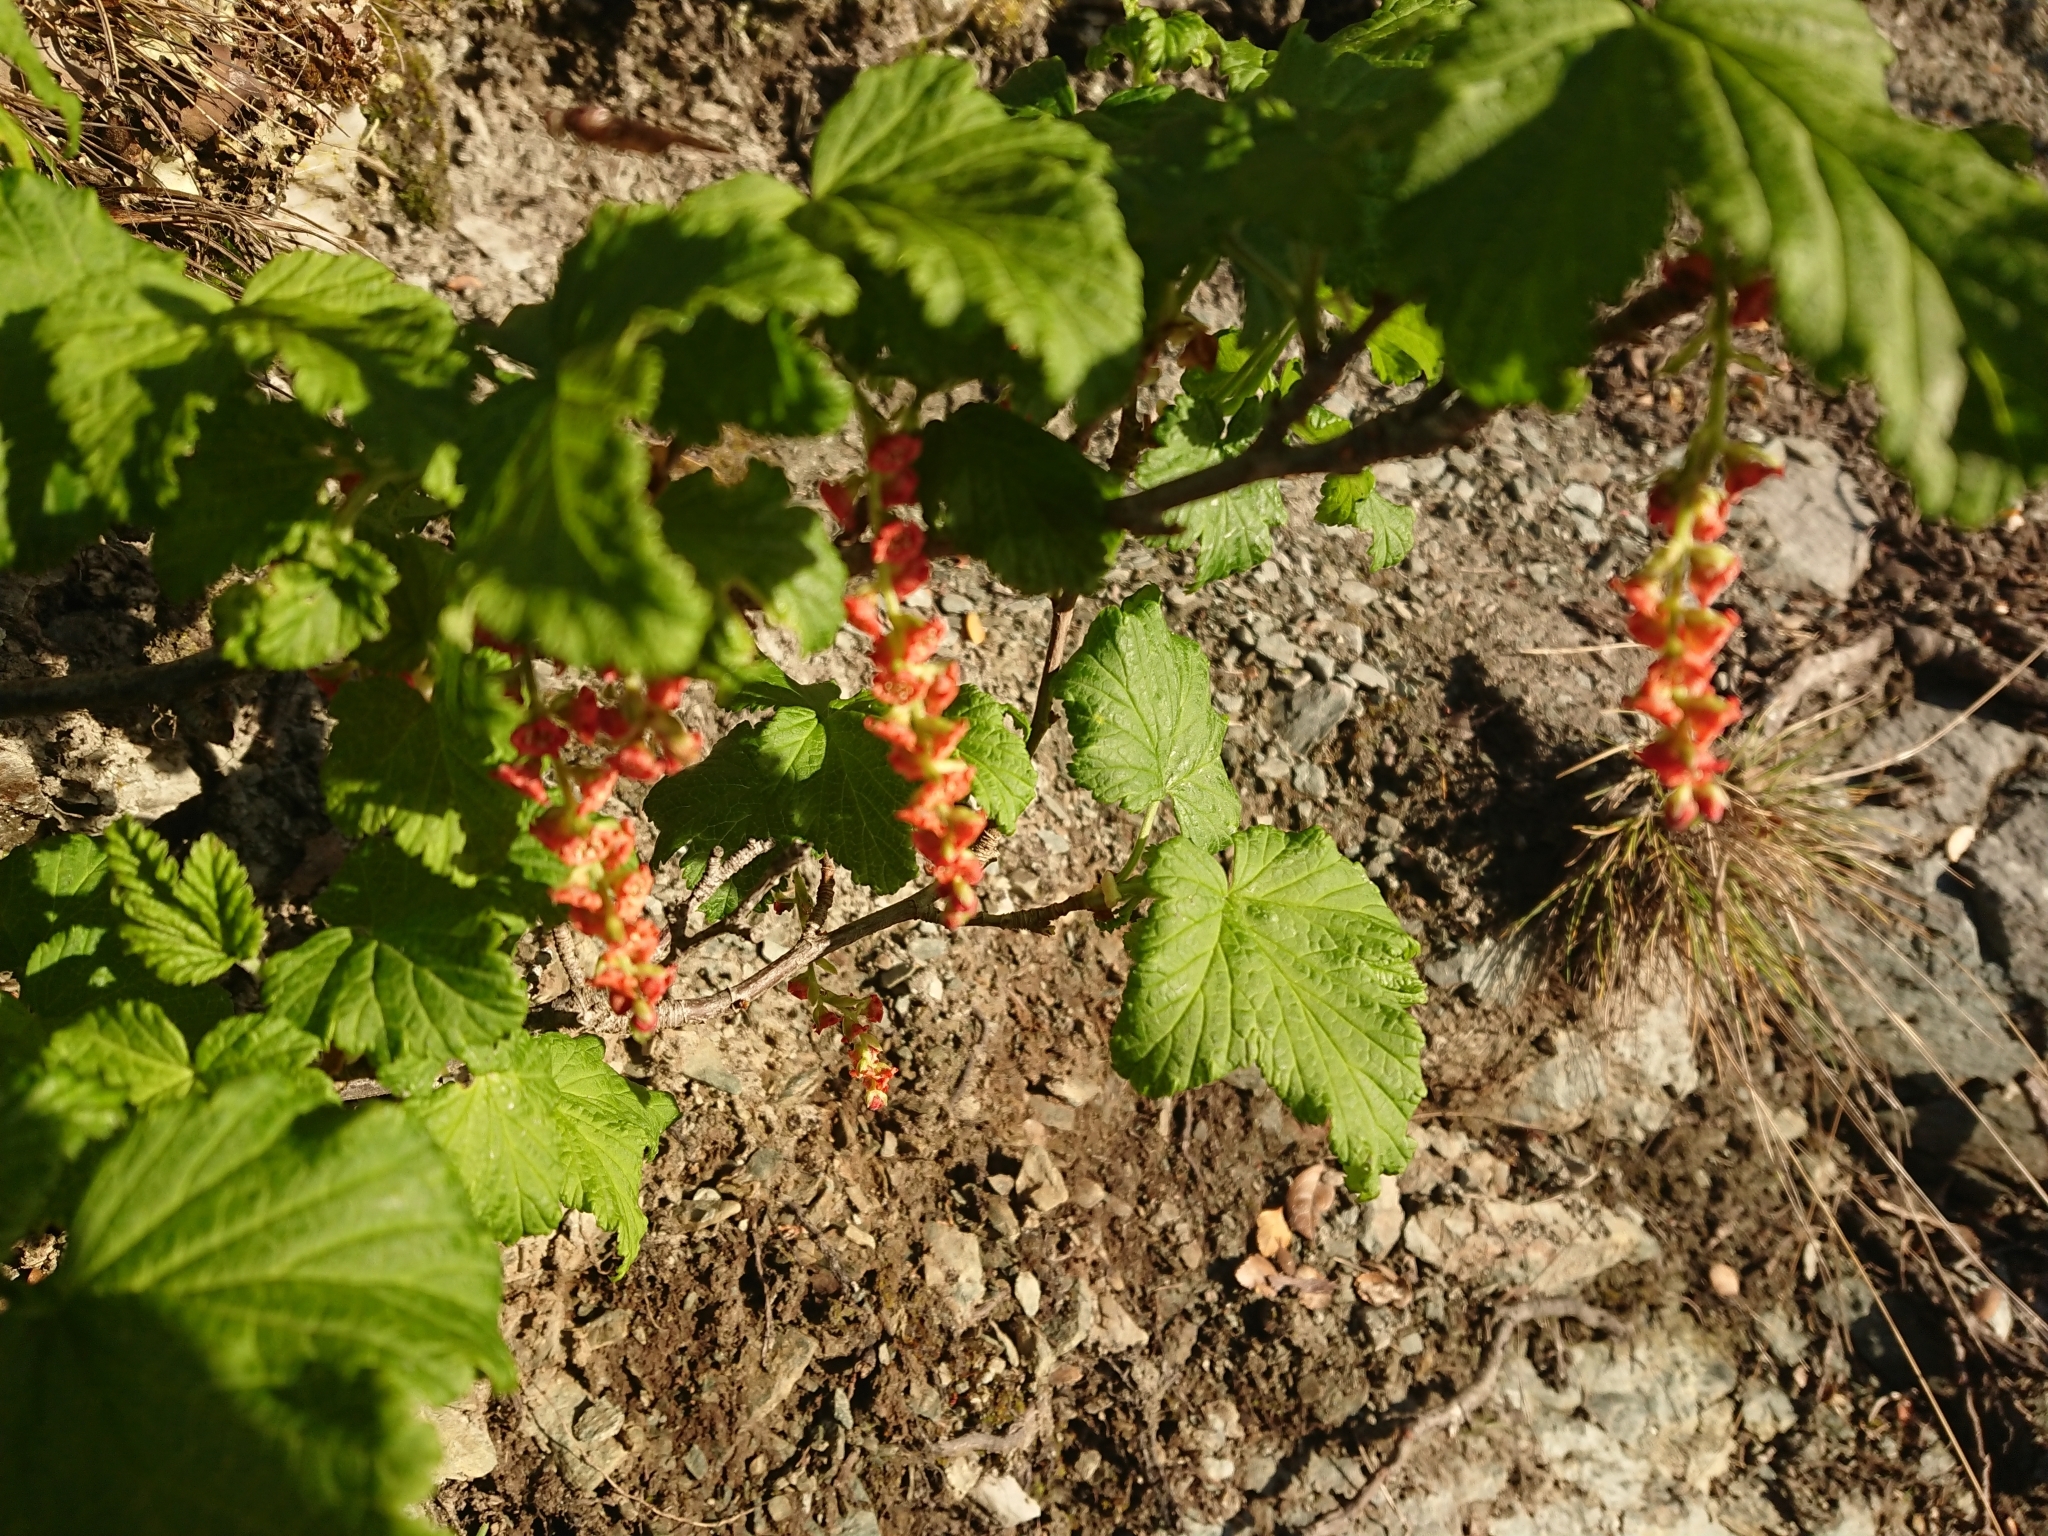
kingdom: Plantae
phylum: Tracheophyta
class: Magnoliopsida
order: Saxifragales
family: Grossulariaceae
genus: Ribes
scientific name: Ribes magellanicum
